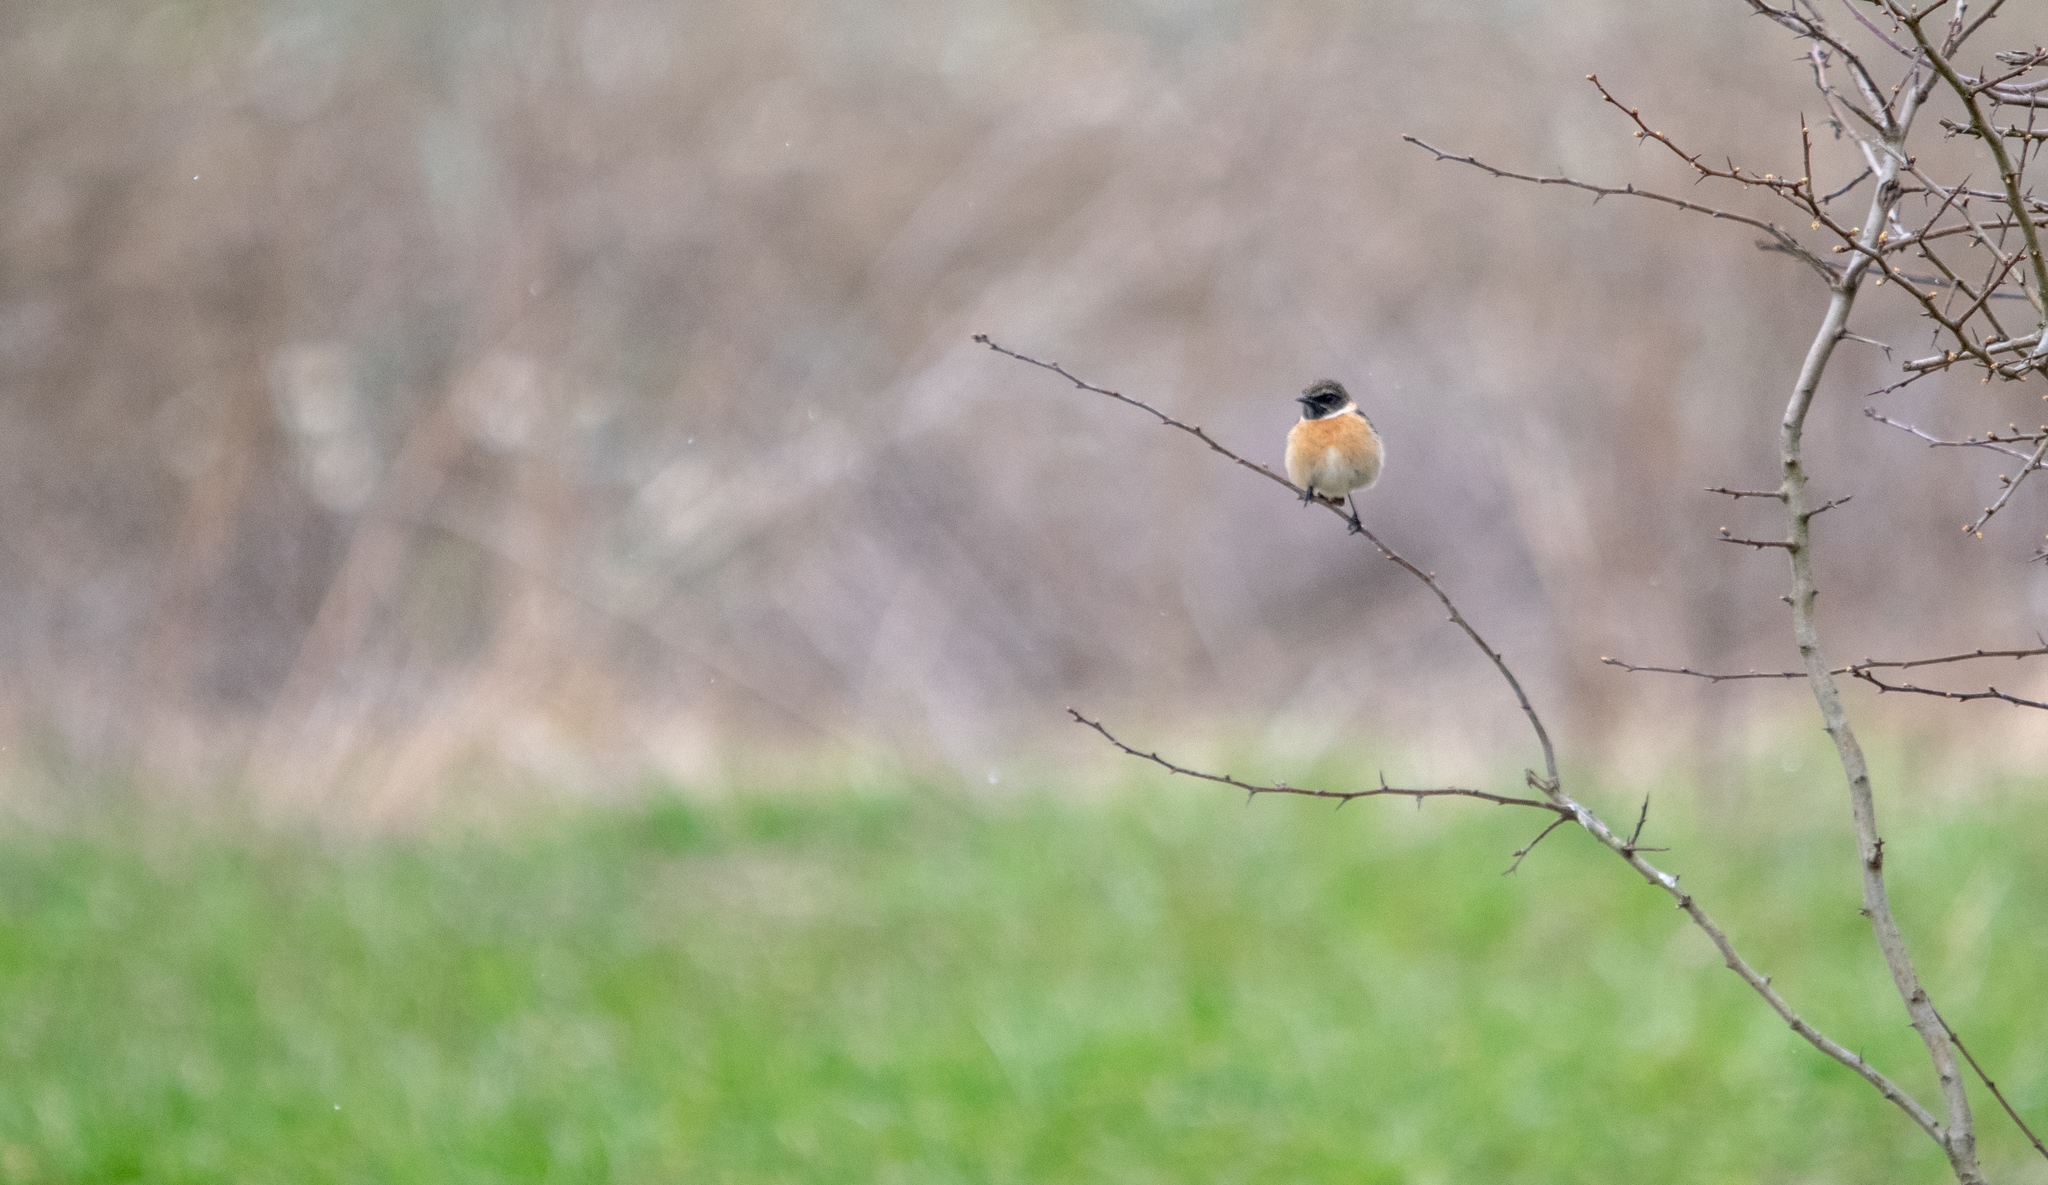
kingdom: Animalia
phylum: Chordata
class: Aves
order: Passeriformes
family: Muscicapidae
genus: Saxicola
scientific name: Saxicola rubicola
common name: European stonechat
